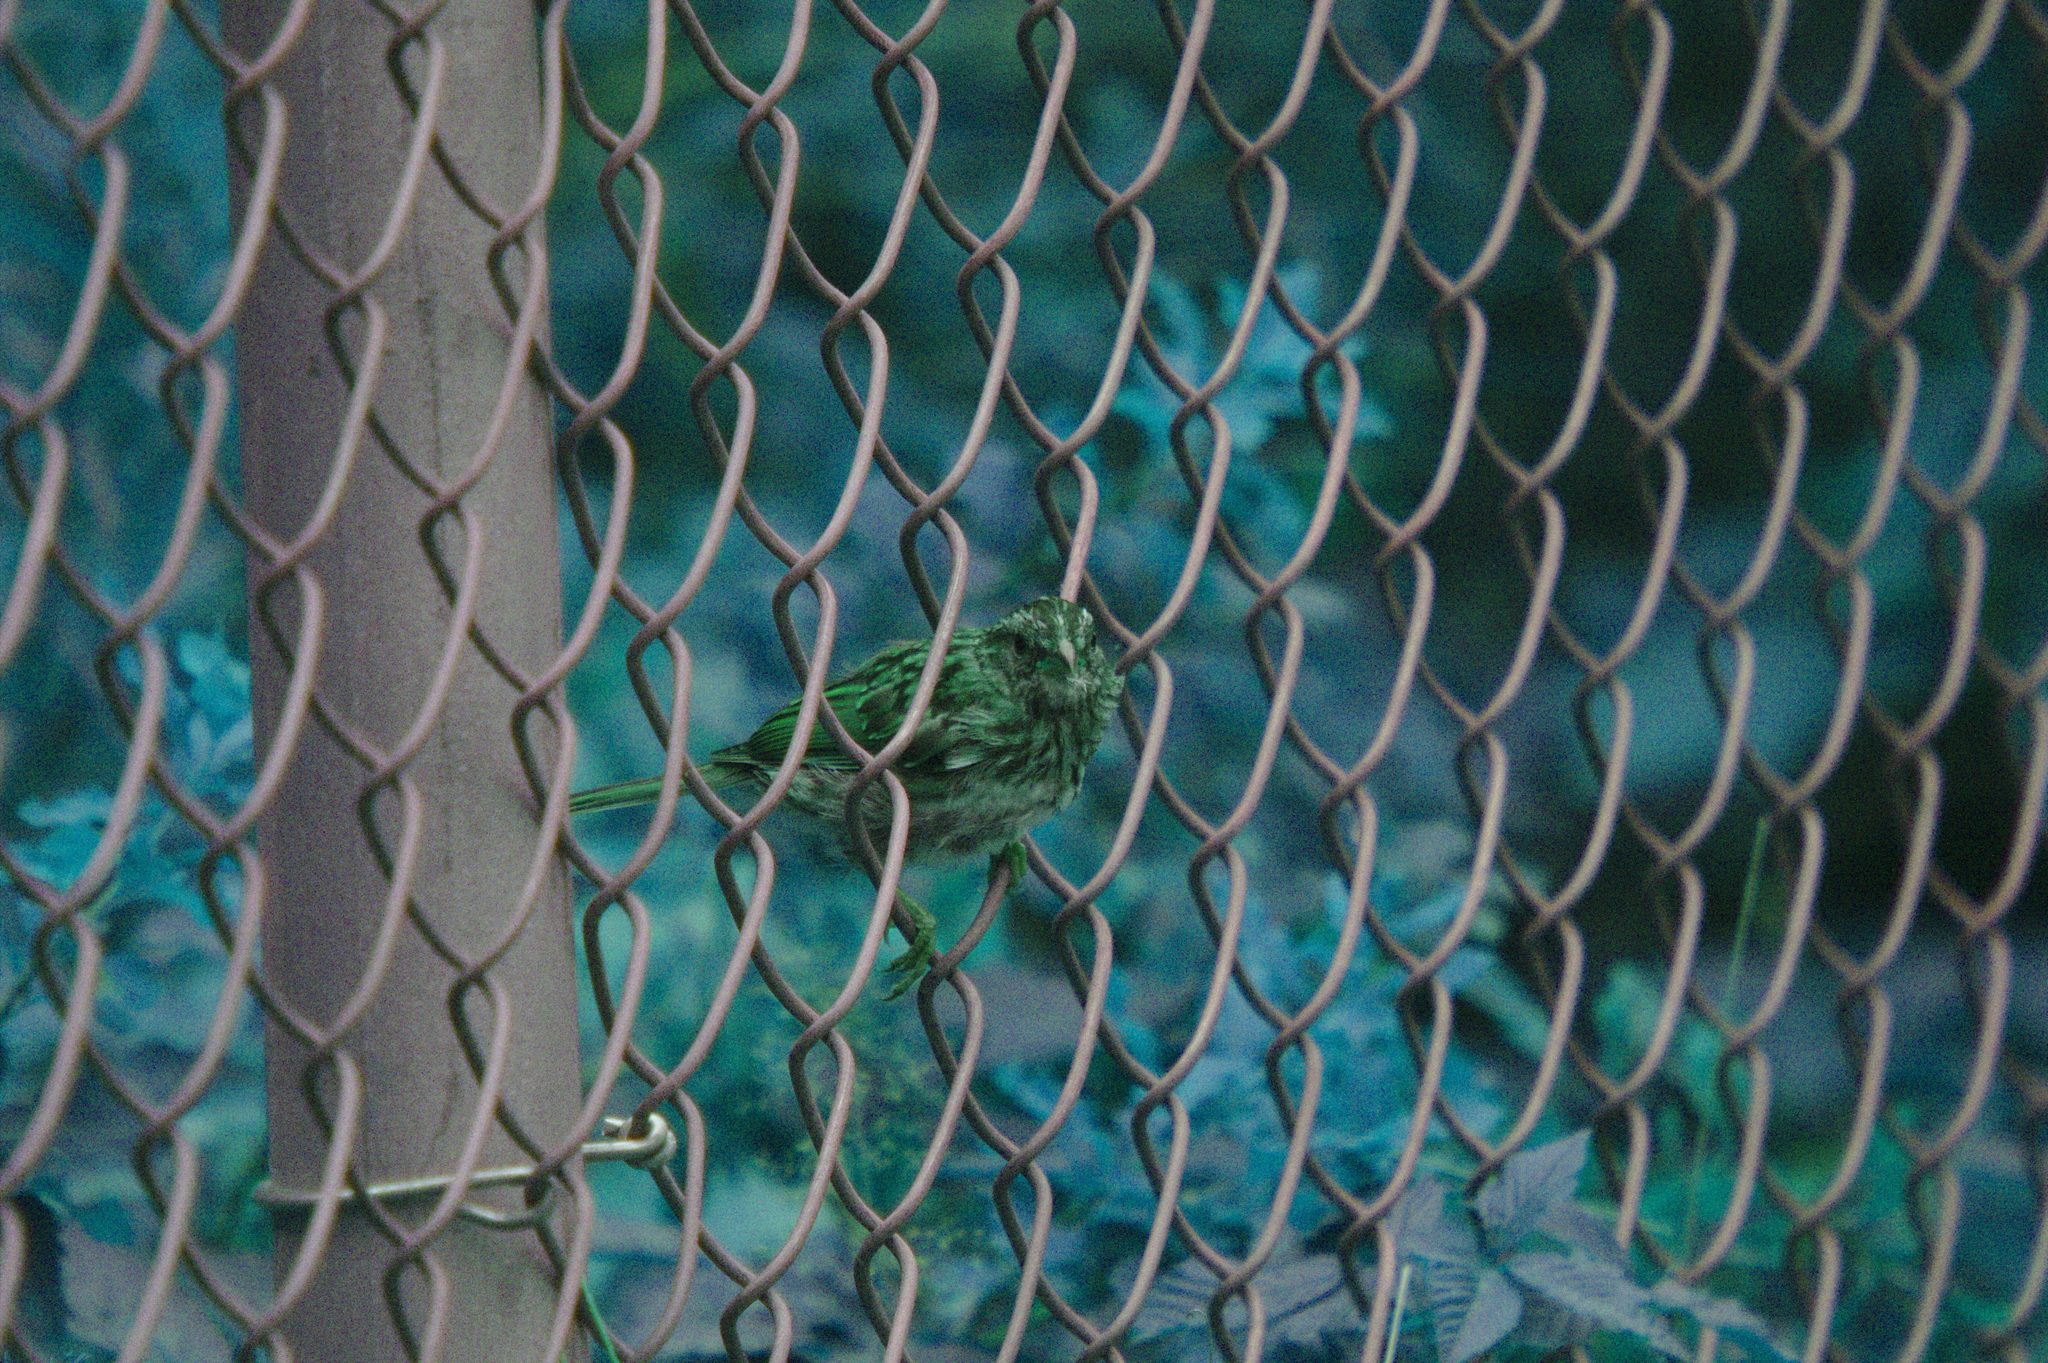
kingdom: Animalia
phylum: Chordata
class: Aves
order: Passeriformes
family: Passerellidae
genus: Zonotrichia
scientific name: Zonotrichia albicollis
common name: White-throated sparrow
